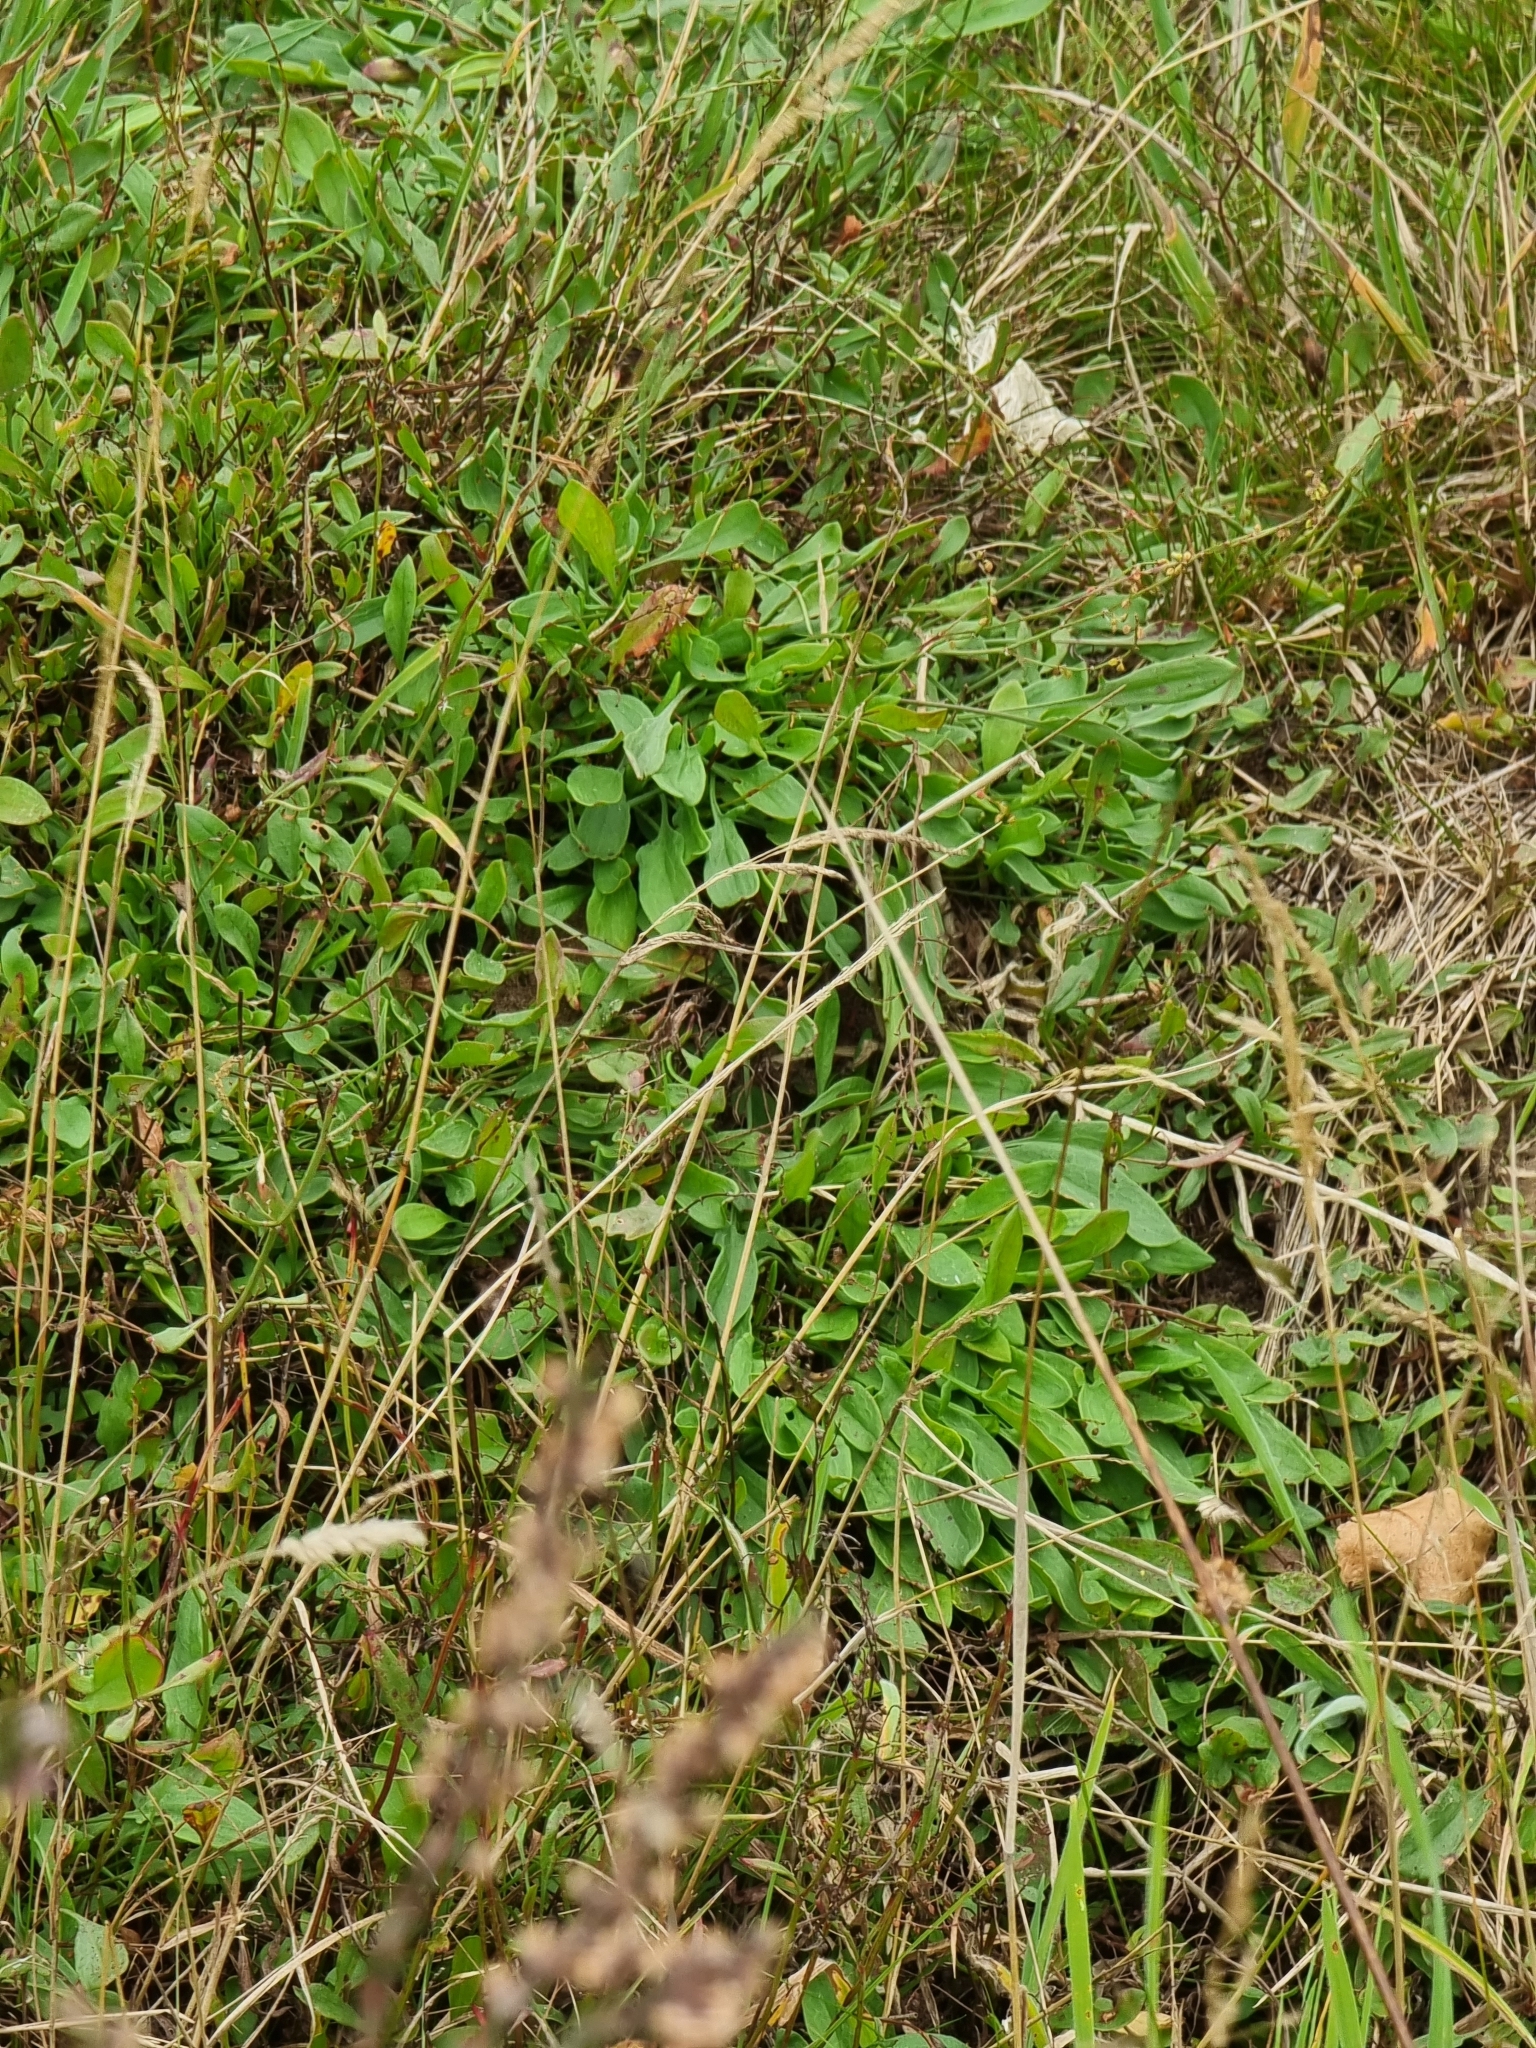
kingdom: Plantae
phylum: Tracheophyta
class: Magnoliopsida
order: Caryophyllales
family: Polygonaceae
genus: Rumex
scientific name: Rumex acetosella
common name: Common sheep sorrel
